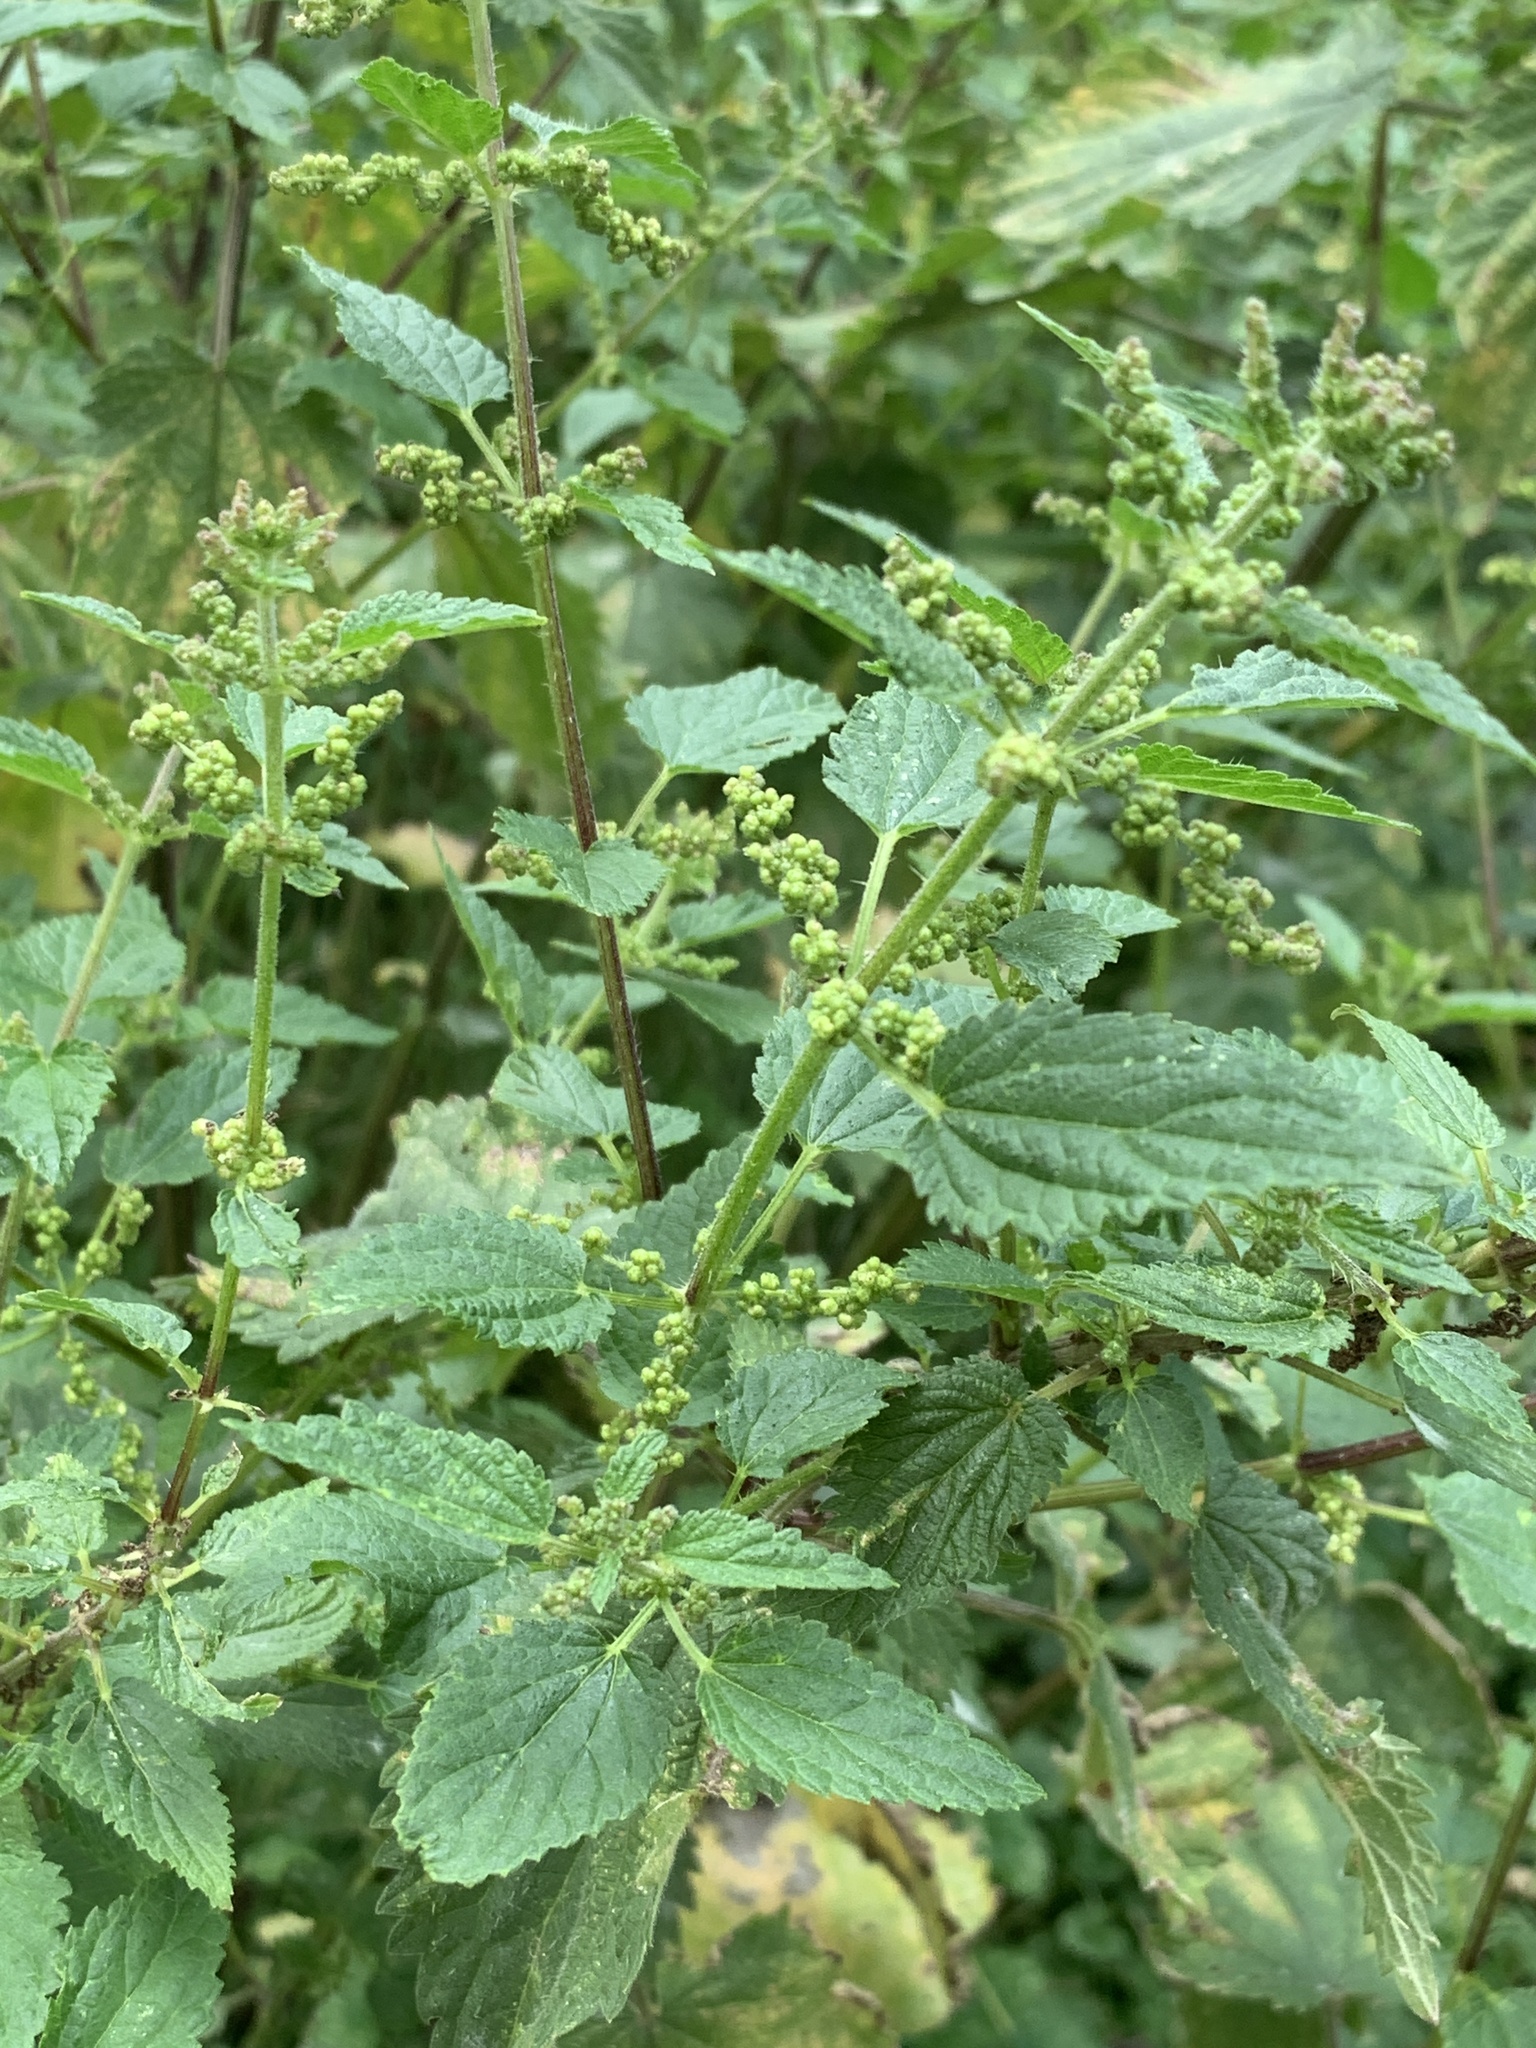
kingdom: Plantae
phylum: Tracheophyta
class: Magnoliopsida
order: Rosales
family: Urticaceae
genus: Urtica
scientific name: Urtica dioica
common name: Common nettle
